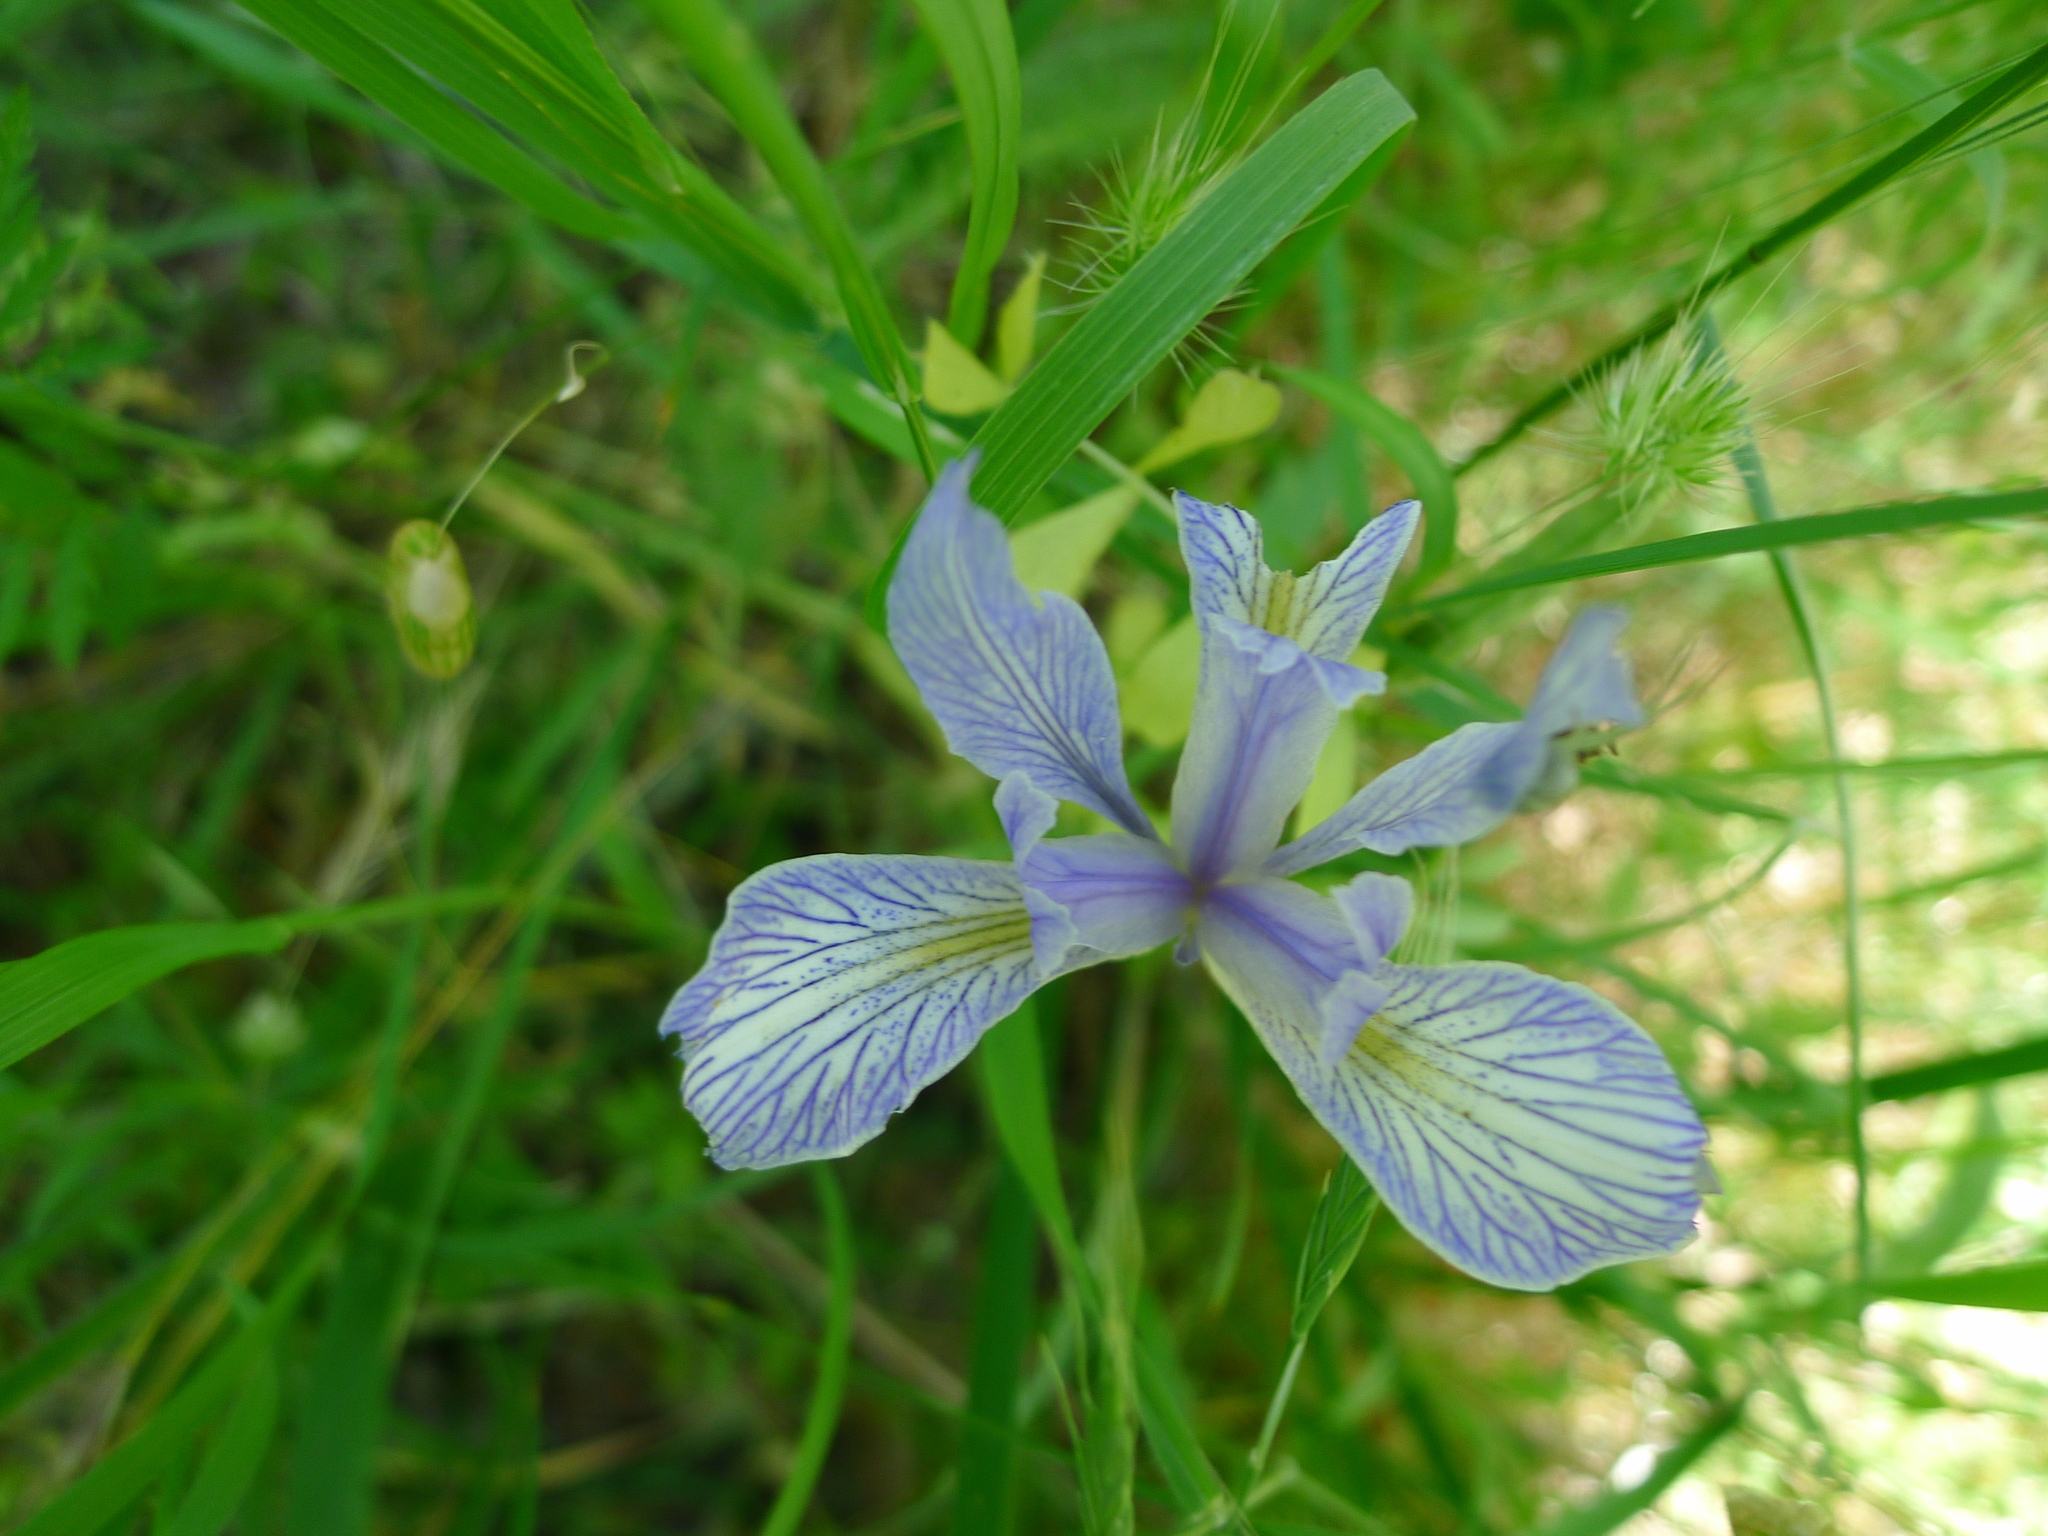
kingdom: Plantae
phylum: Tracheophyta
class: Liliopsida
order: Asparagales
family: Iridaceae
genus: Iris
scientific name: Iris macrosiphon
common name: Ground iris
